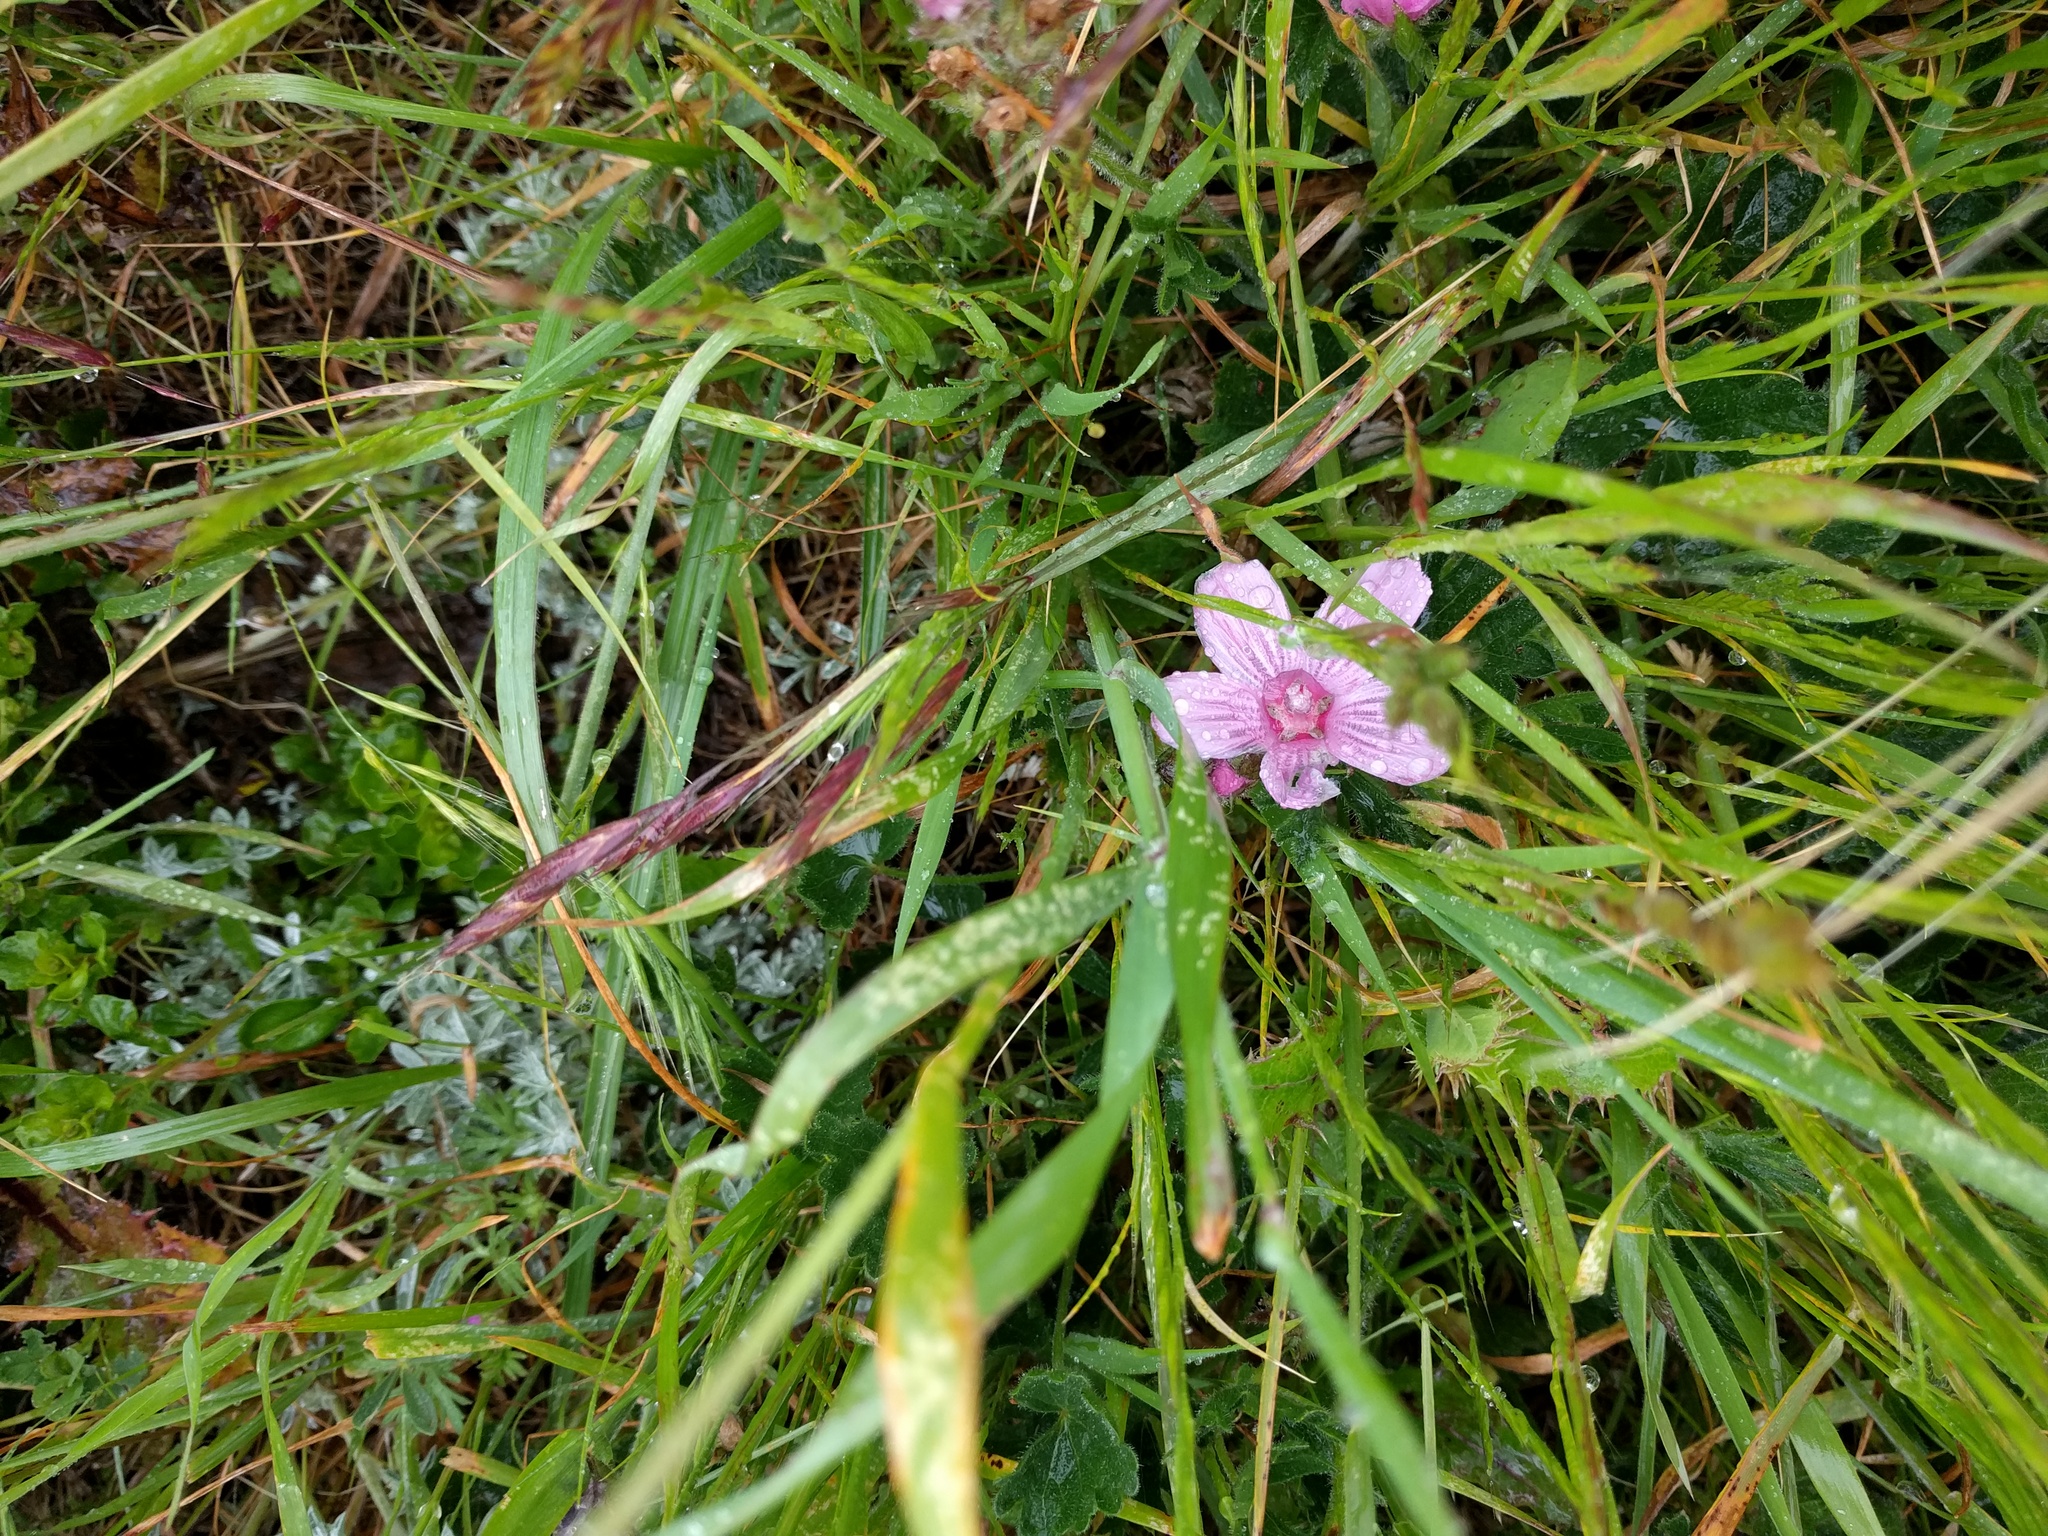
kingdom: Plantae
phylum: Tracheophyta
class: Magnoliopsida
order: Malvales
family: Malvaceae
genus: Sidalcea
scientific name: Sidalcea malviflora
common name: Greek mallow
